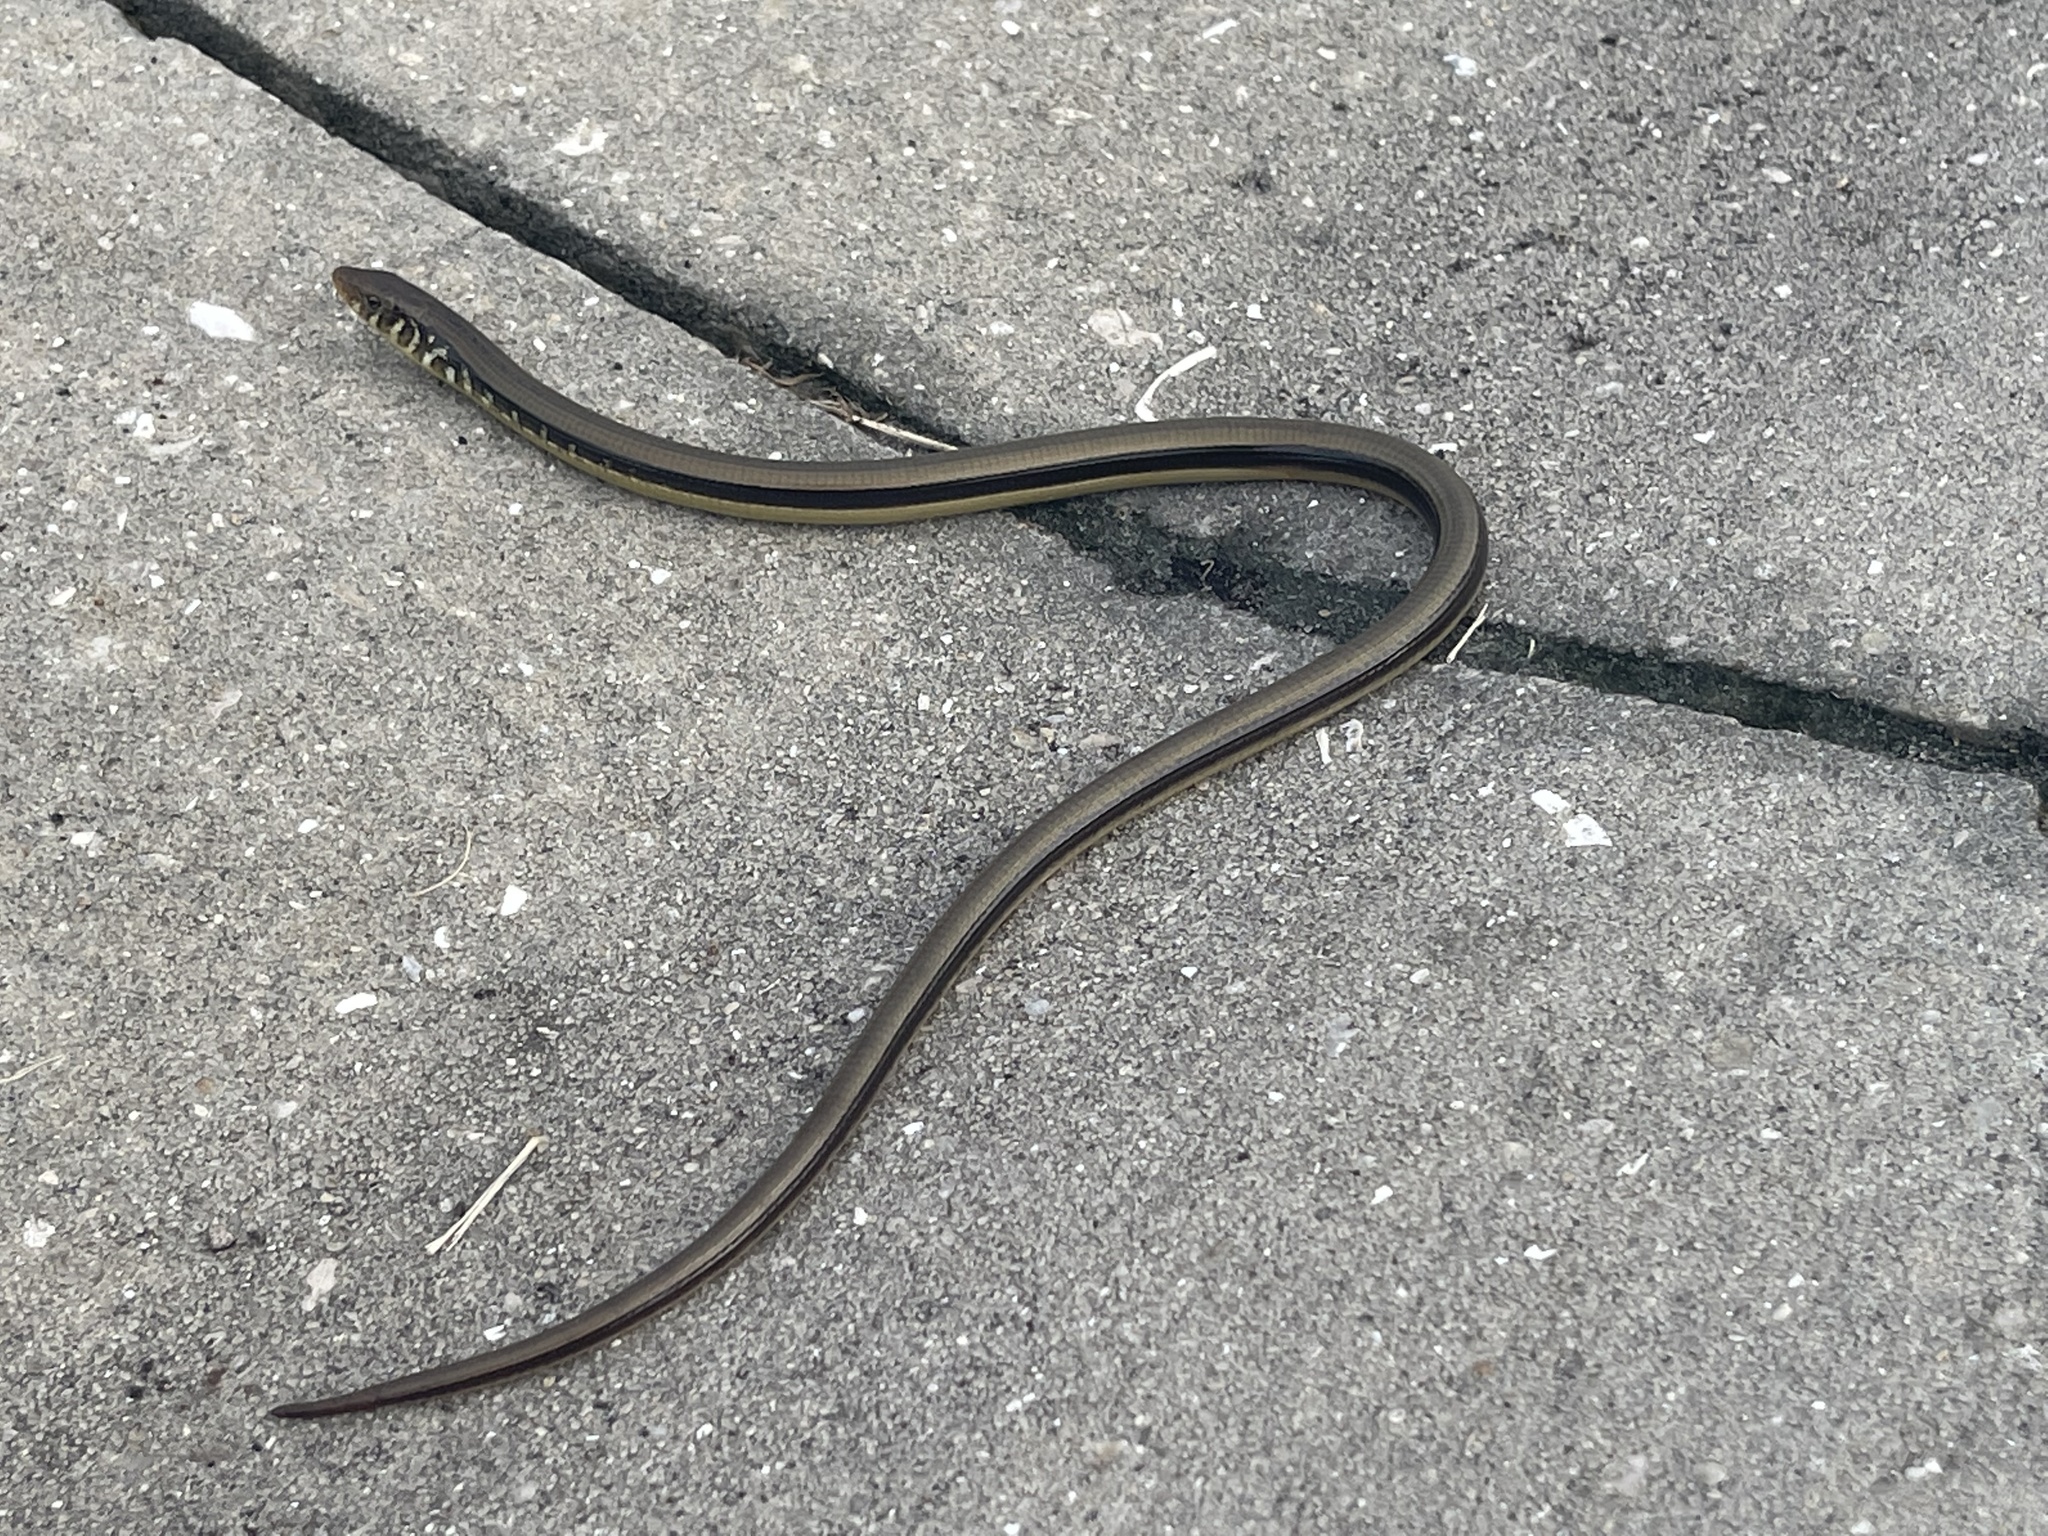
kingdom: Animalia
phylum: Chordata
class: Squamata
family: Anguidae
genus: Ophisaurus
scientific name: Ophisaurus ventralis
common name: Eastern glass lizard
